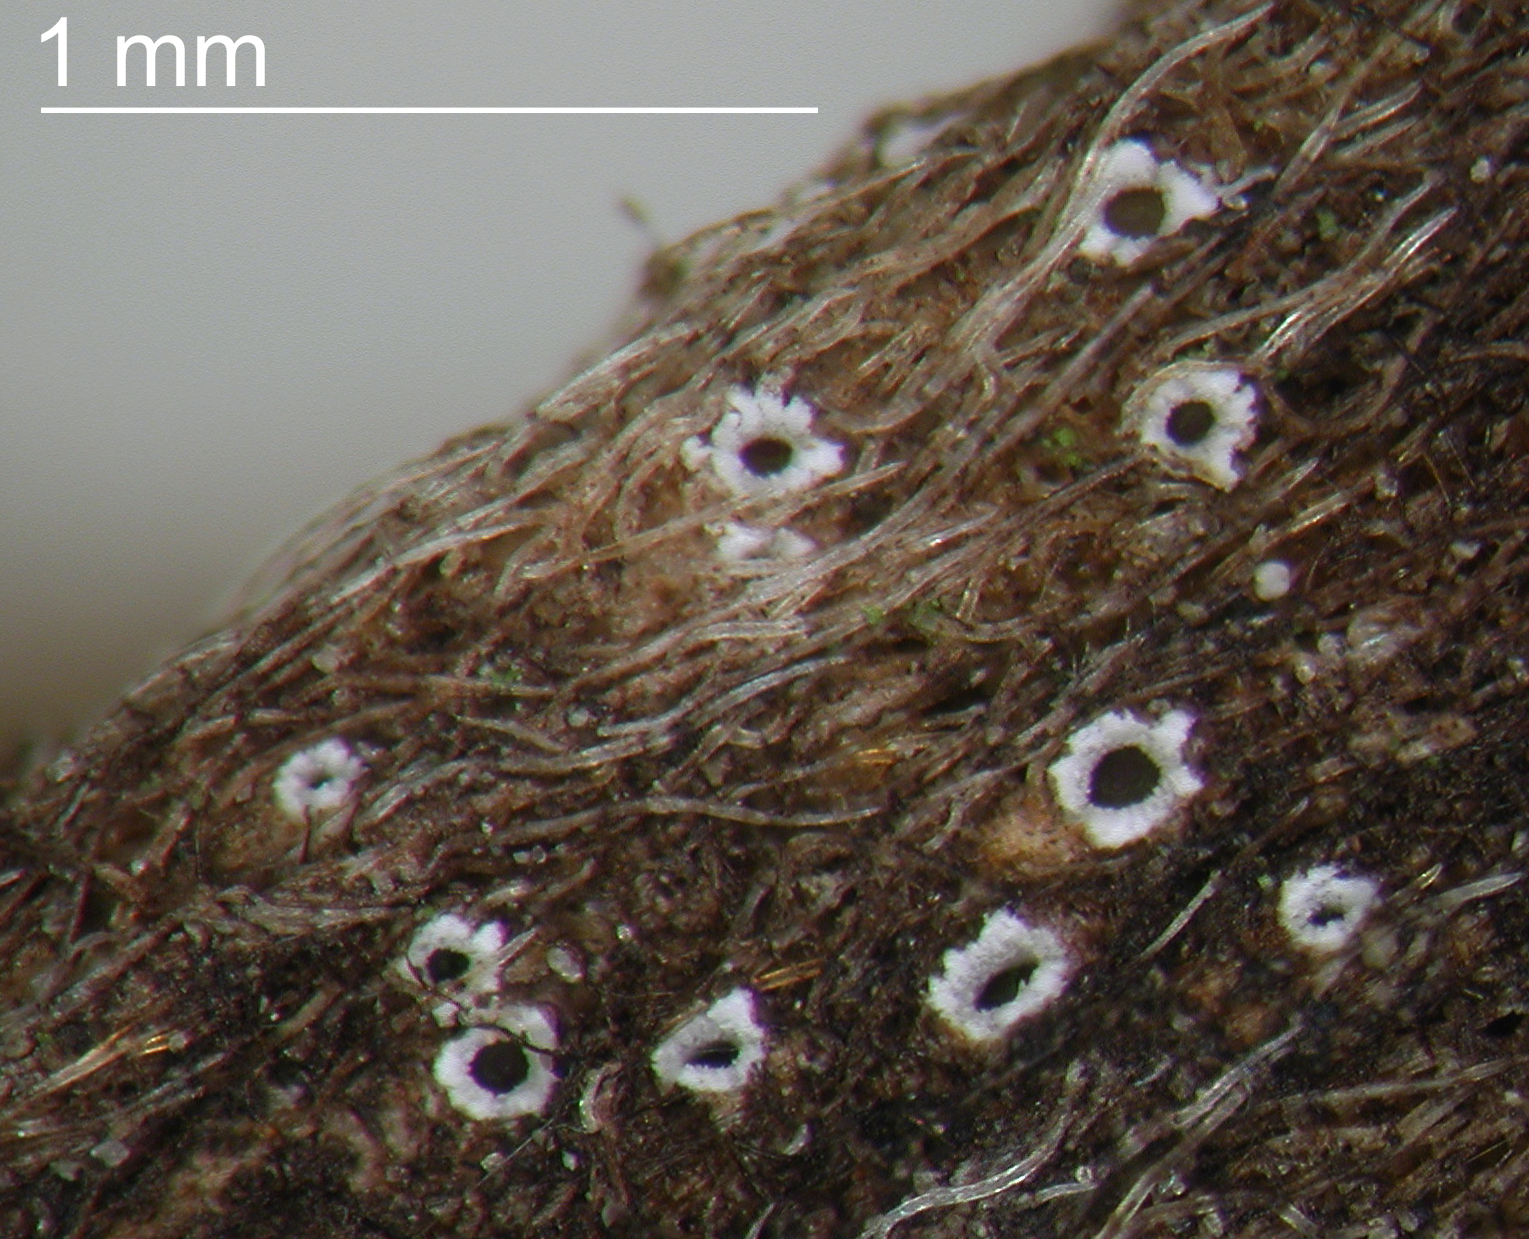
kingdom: Fungi
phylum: Ascomycota
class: Lecanoromycetes
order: Ostropales
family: Stictidaceae
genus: Stictis
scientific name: Stictis
